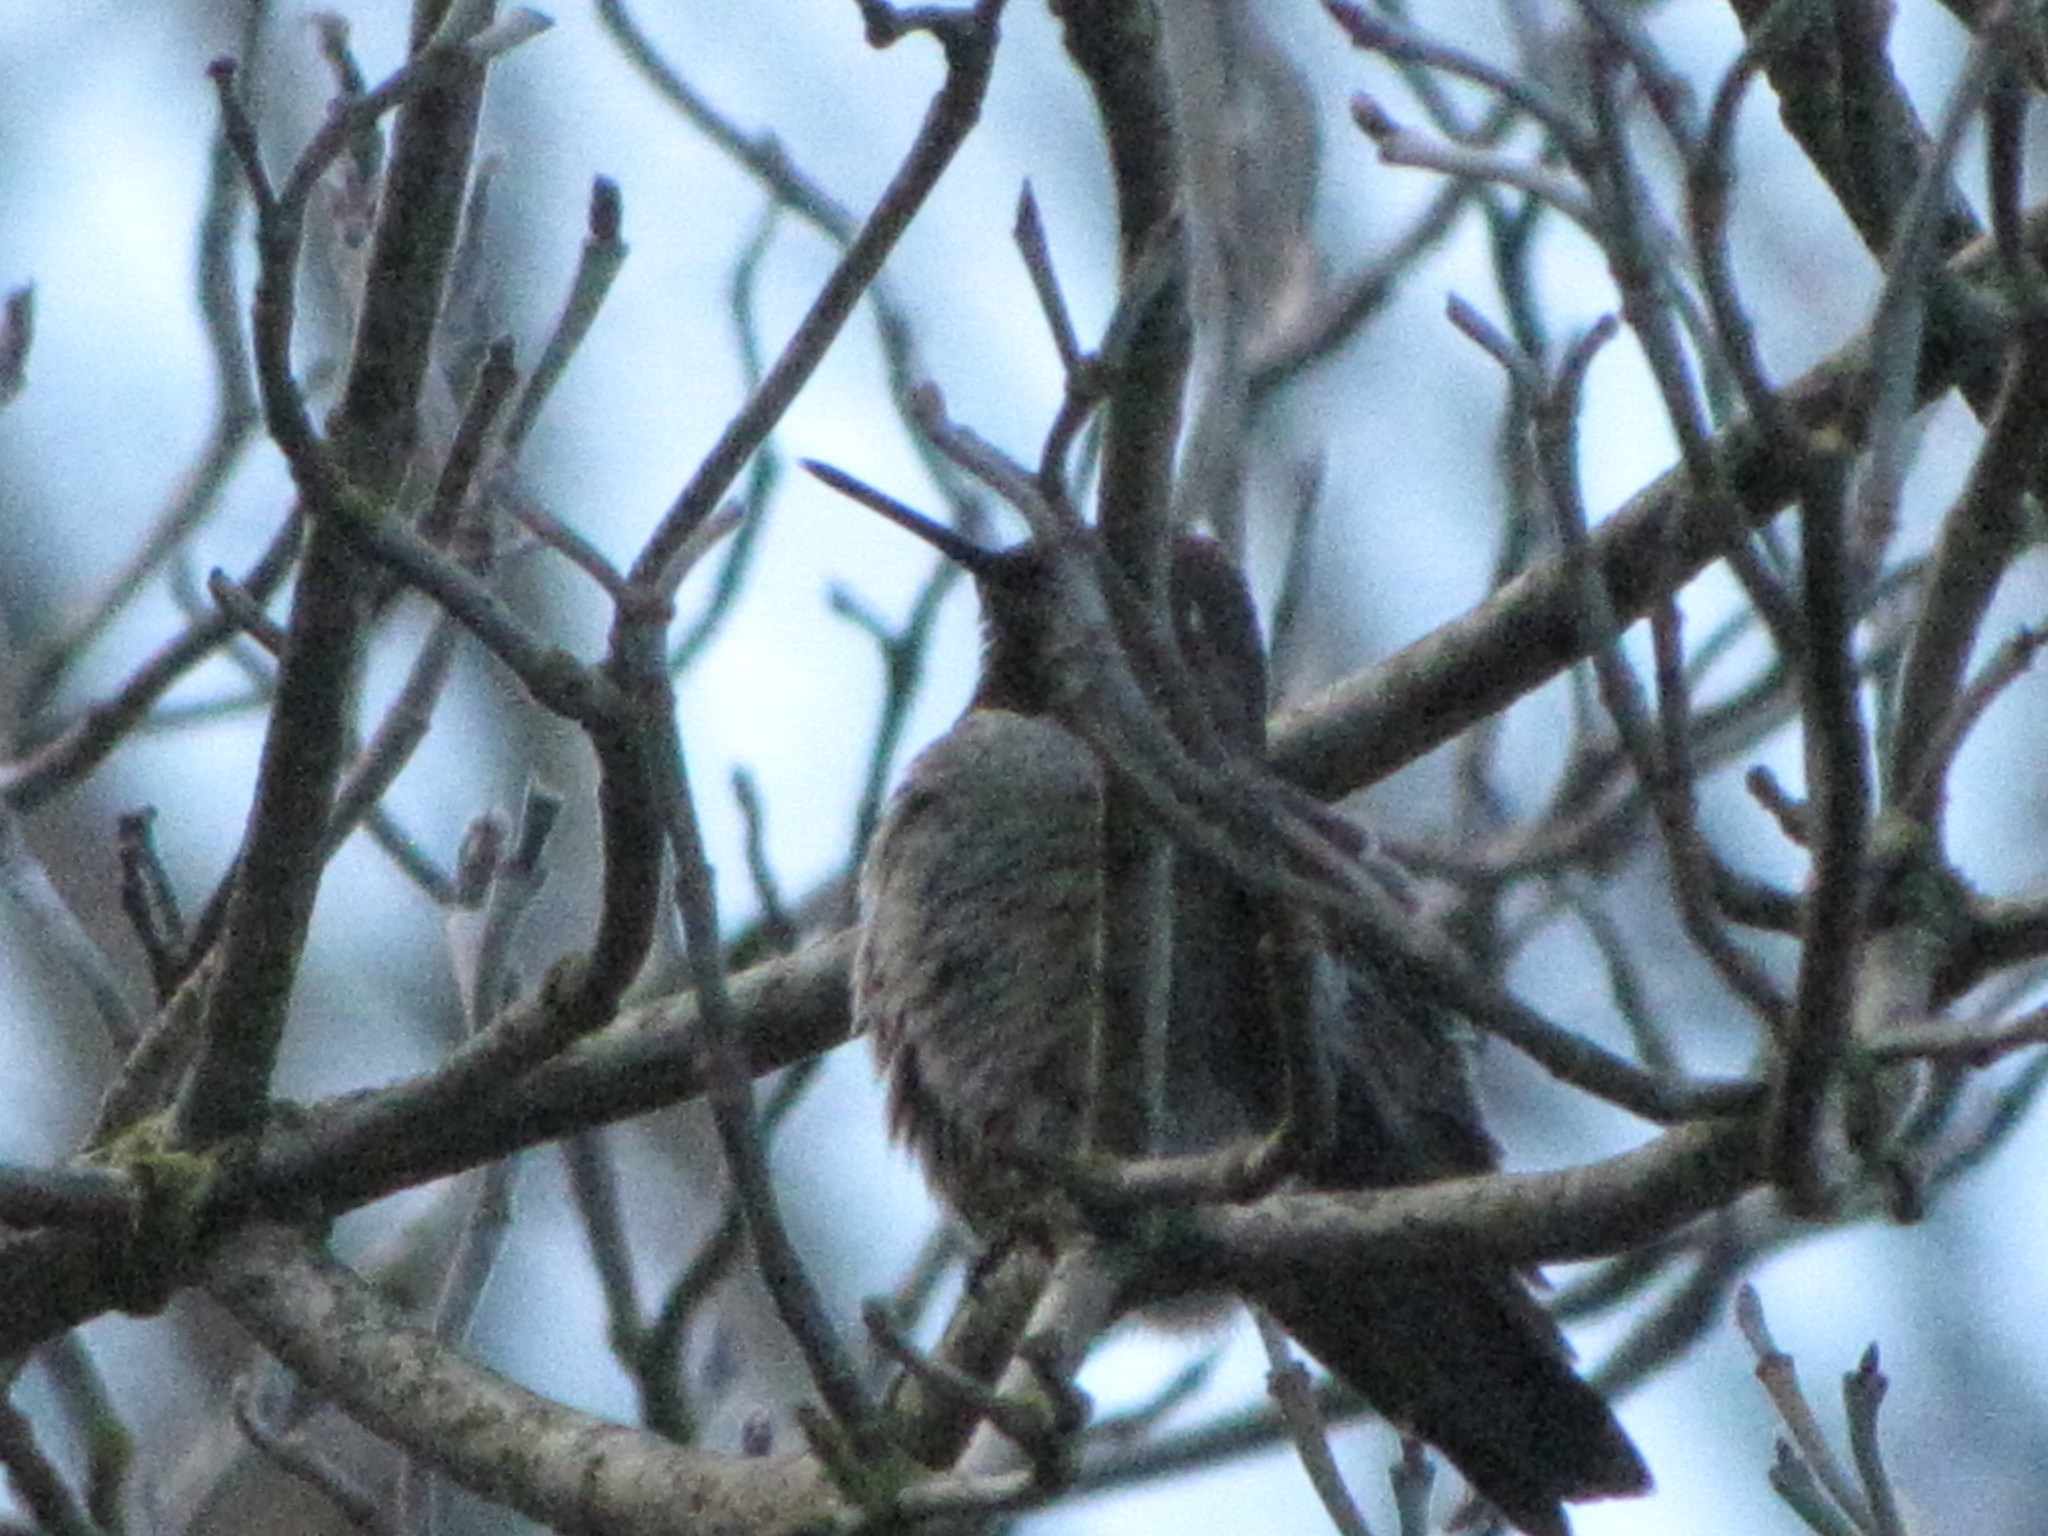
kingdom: Animalia
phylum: Chordata
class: Aves
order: Apodiformes
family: Trochilidae
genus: Calypte
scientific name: Calypte anna
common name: Anna's hummingbird
